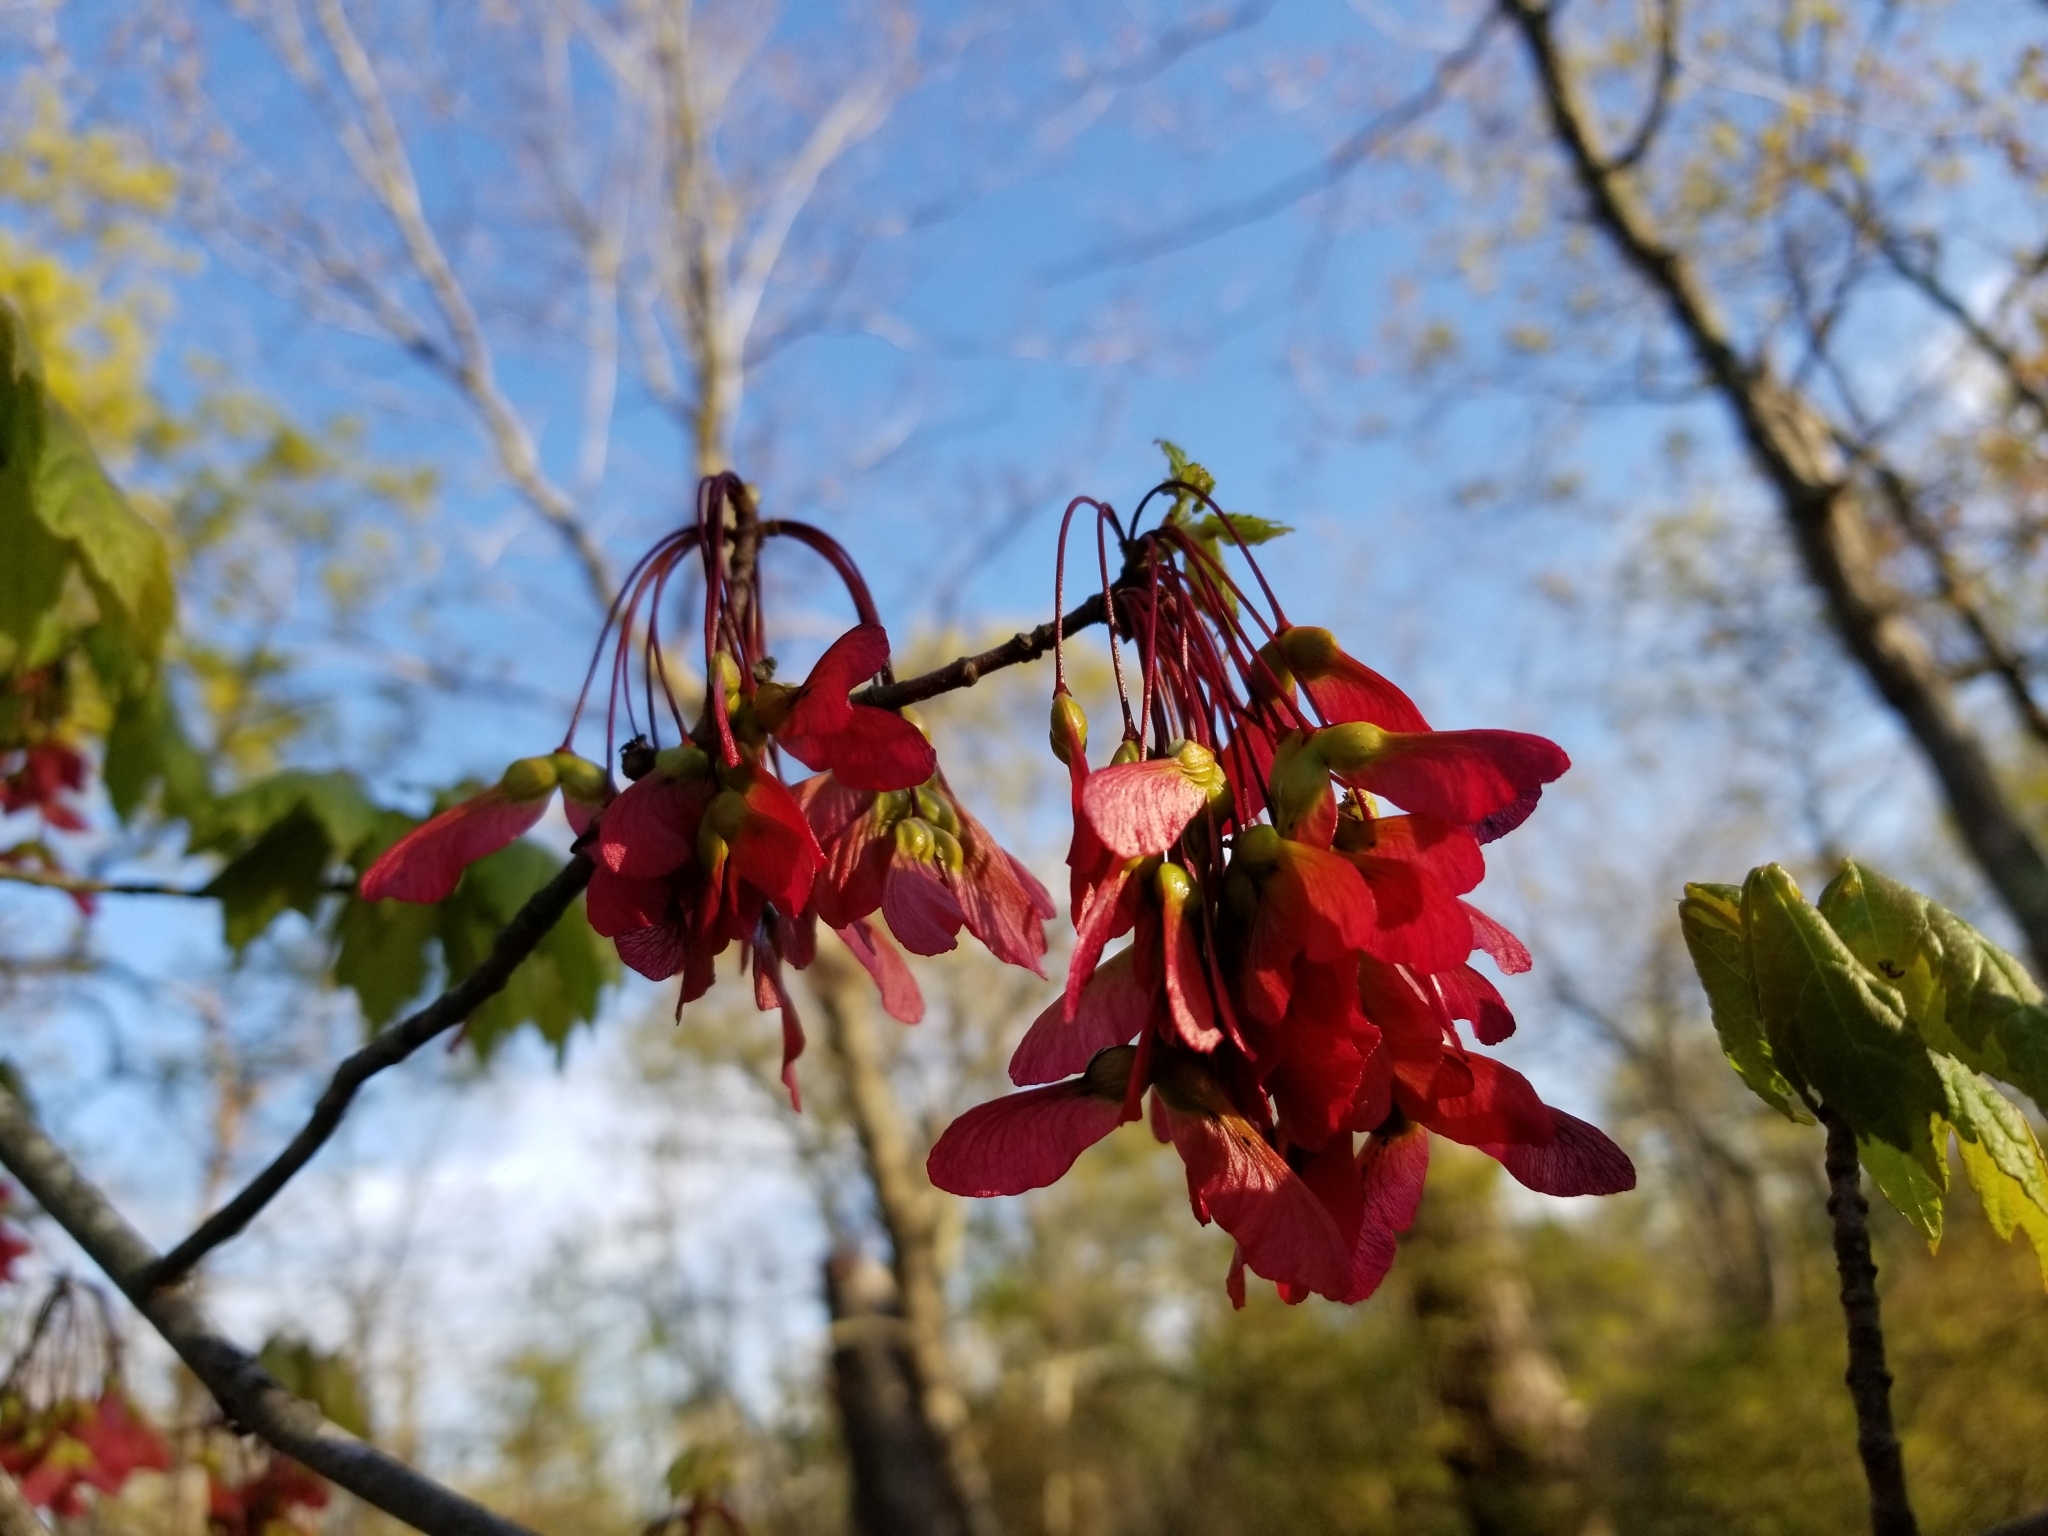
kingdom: Plantae
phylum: Tracheophyta
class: Magnoliopsida
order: Sapindales
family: Sapindaceae
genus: Acer
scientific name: Acer rubrum
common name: Red maple
